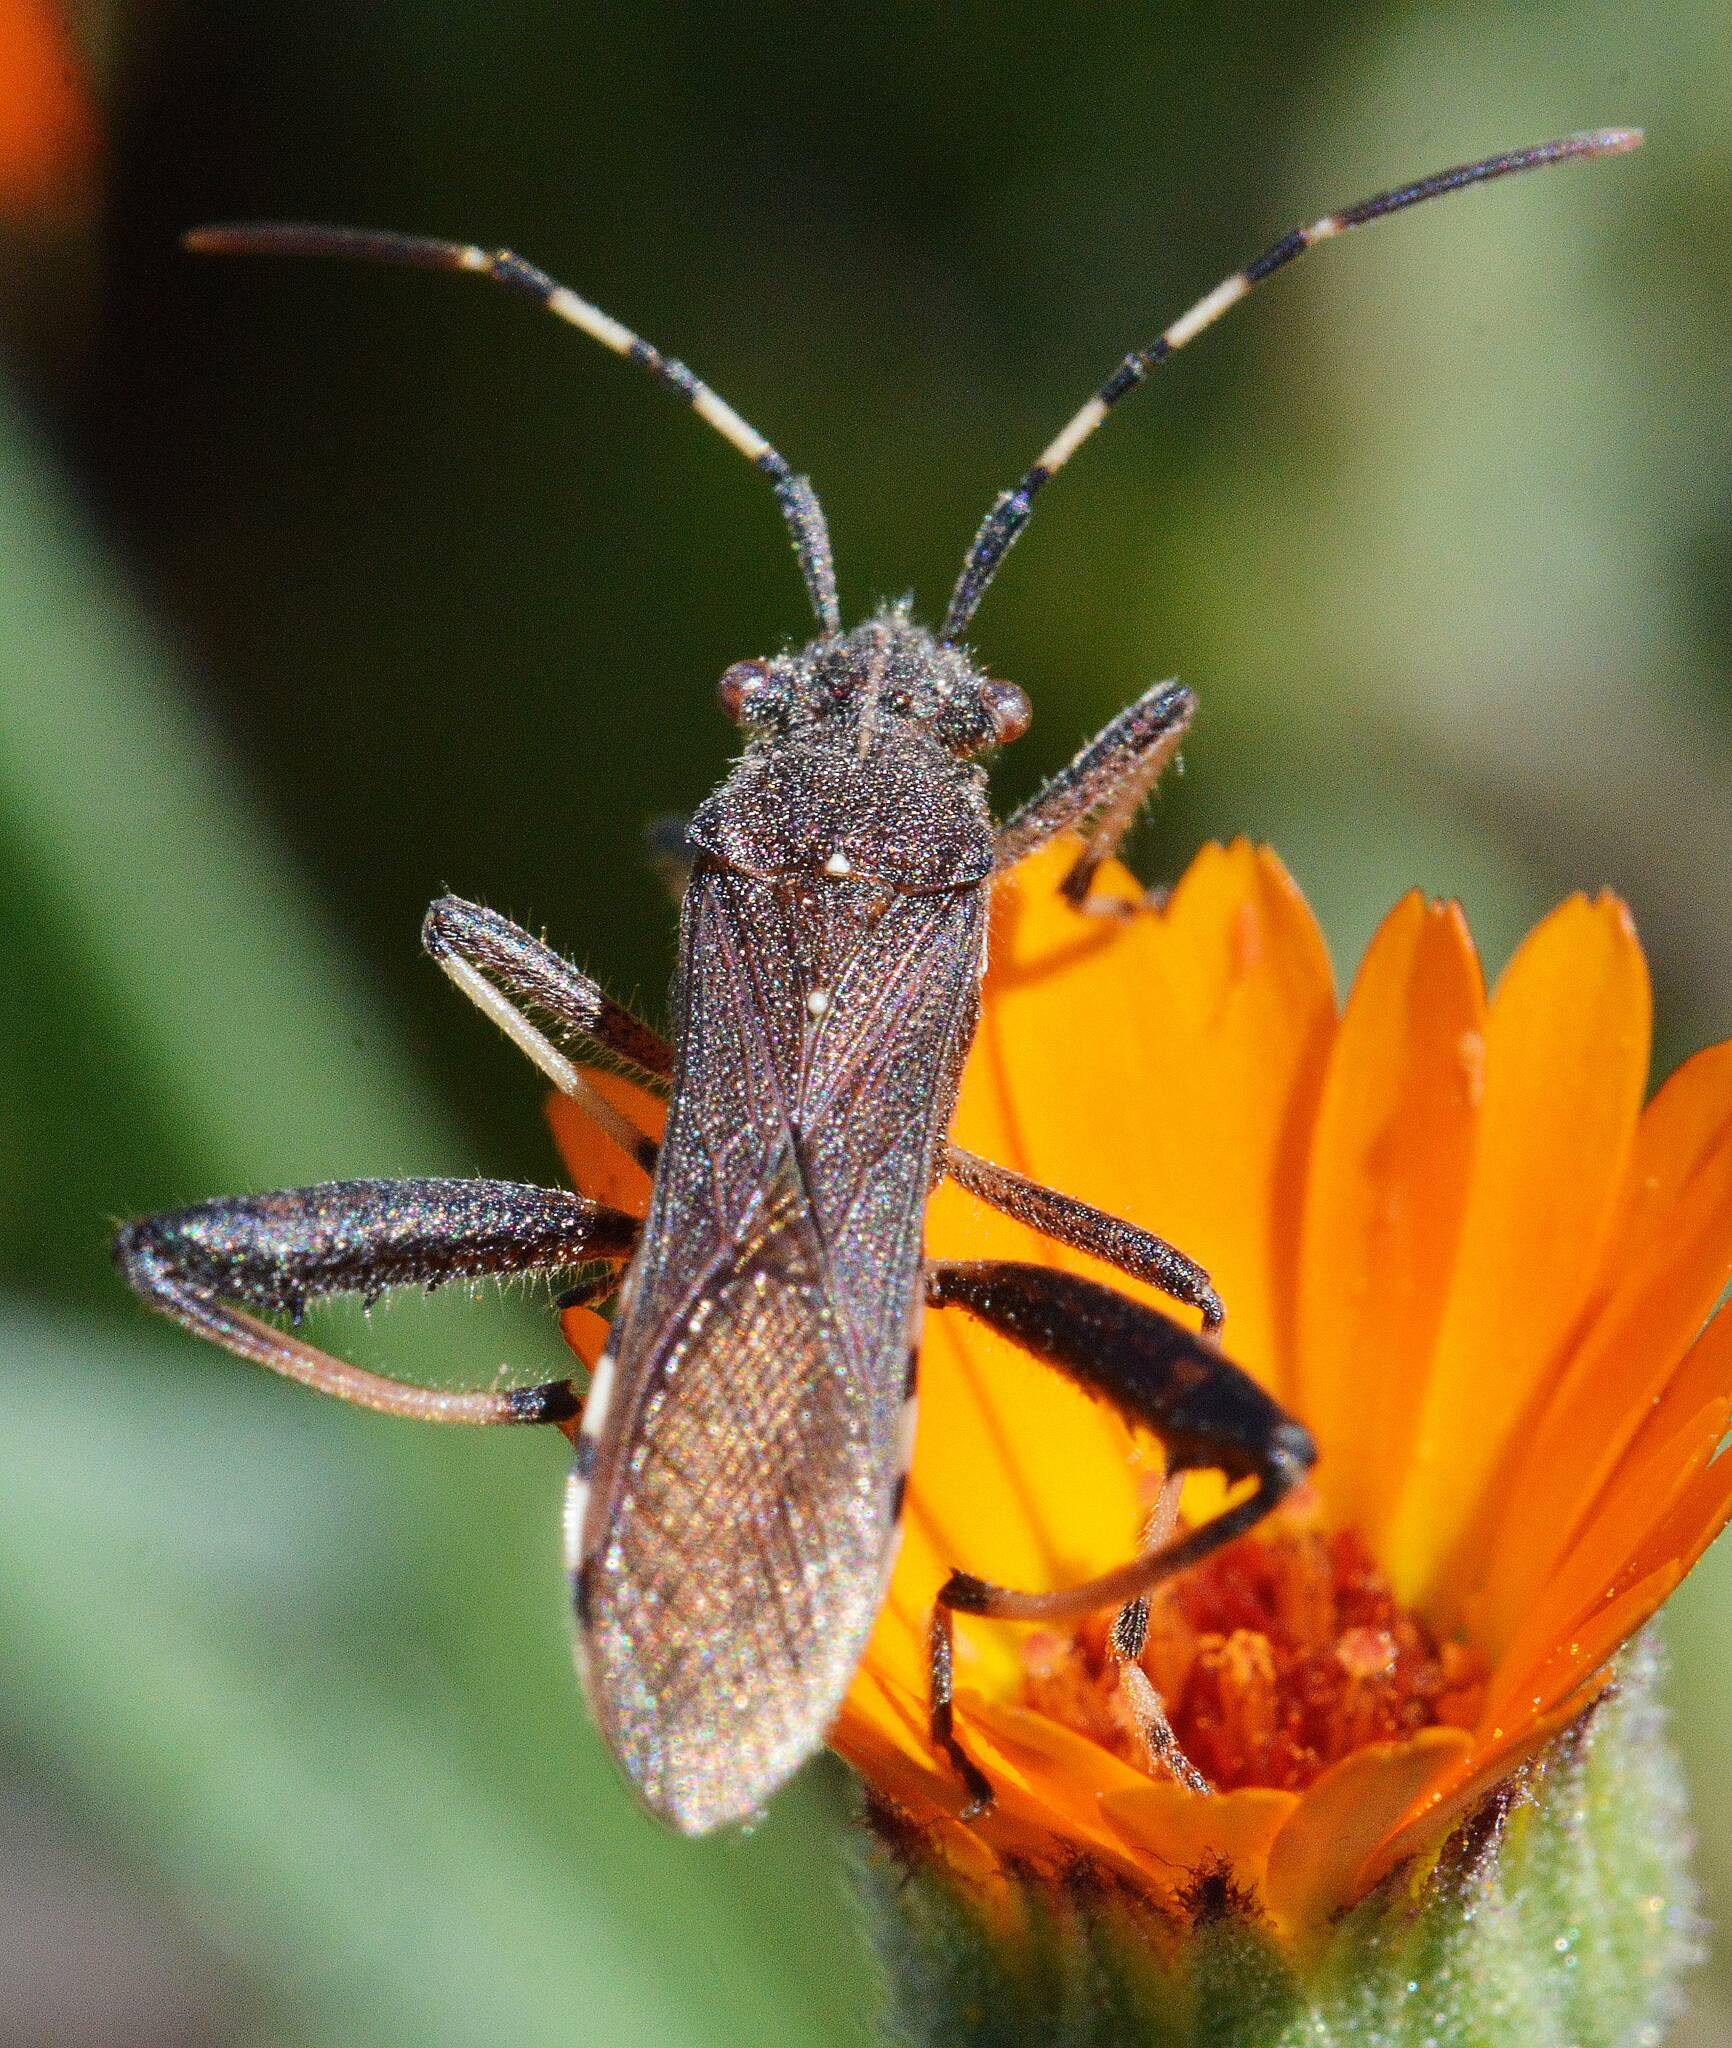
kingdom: Animalia
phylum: Arthropoda
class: Insecta
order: Hemiptera
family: Alydidae
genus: Camptopus
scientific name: Camptopus lateralis
